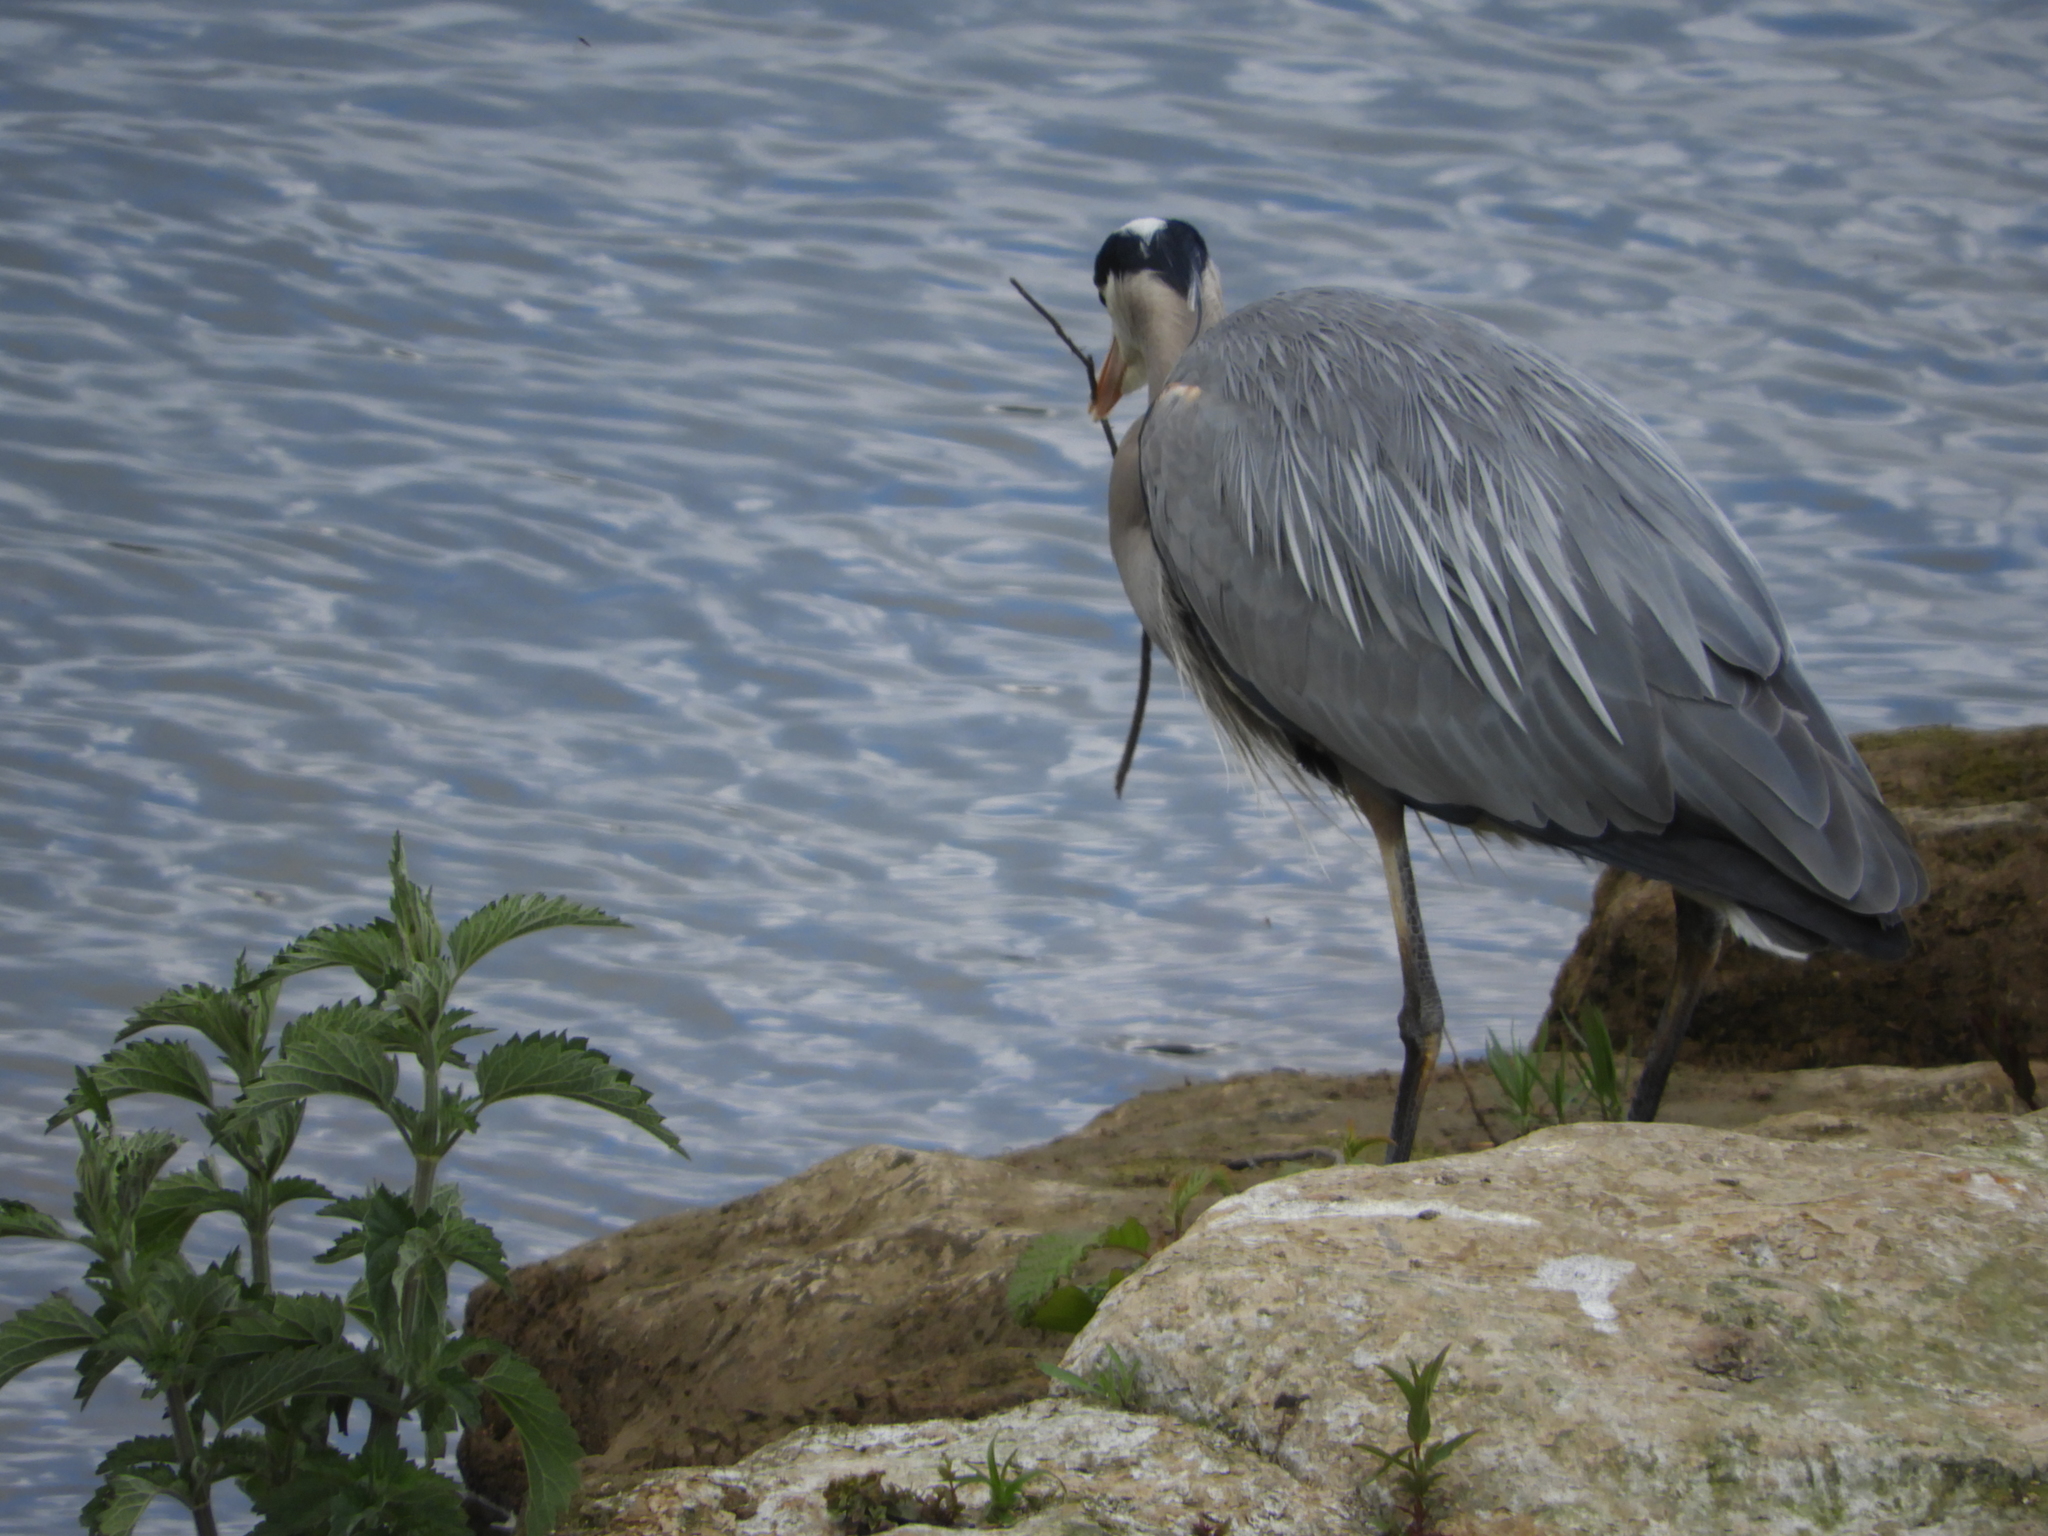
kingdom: Animalia
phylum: Chordata
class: Aves
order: Pelecaniformes
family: Ardeidae
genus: Ardea
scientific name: Ardea herodias
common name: Great blue heron
